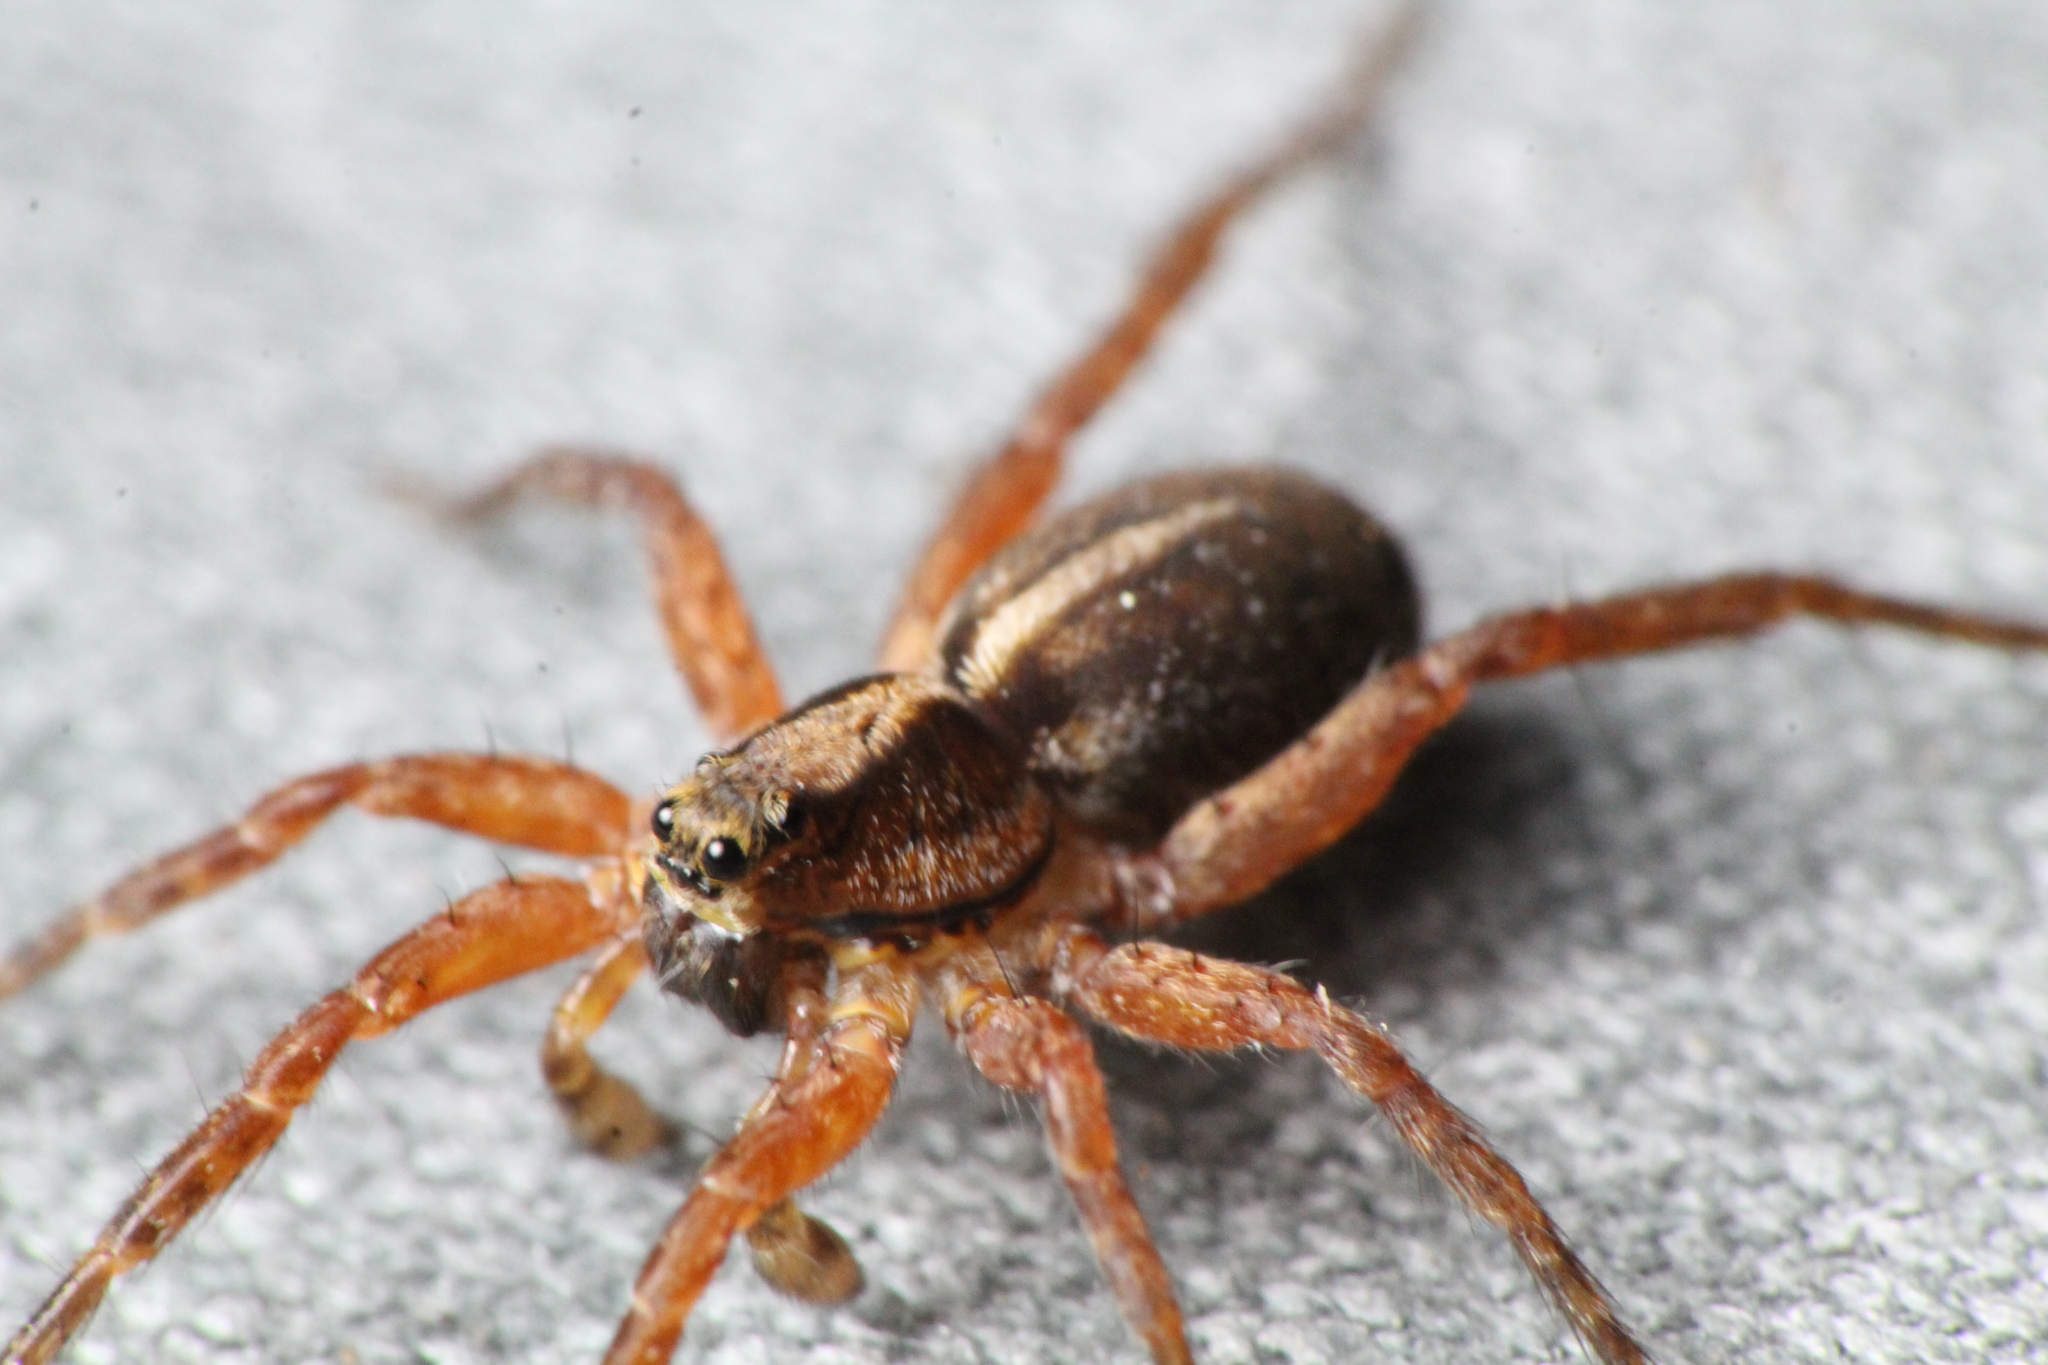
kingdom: Animalia
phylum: Arthropoda
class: Arachnida
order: Araneae
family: Lycosidae
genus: Anoteropsis
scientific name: Anoteropsis hilaris
